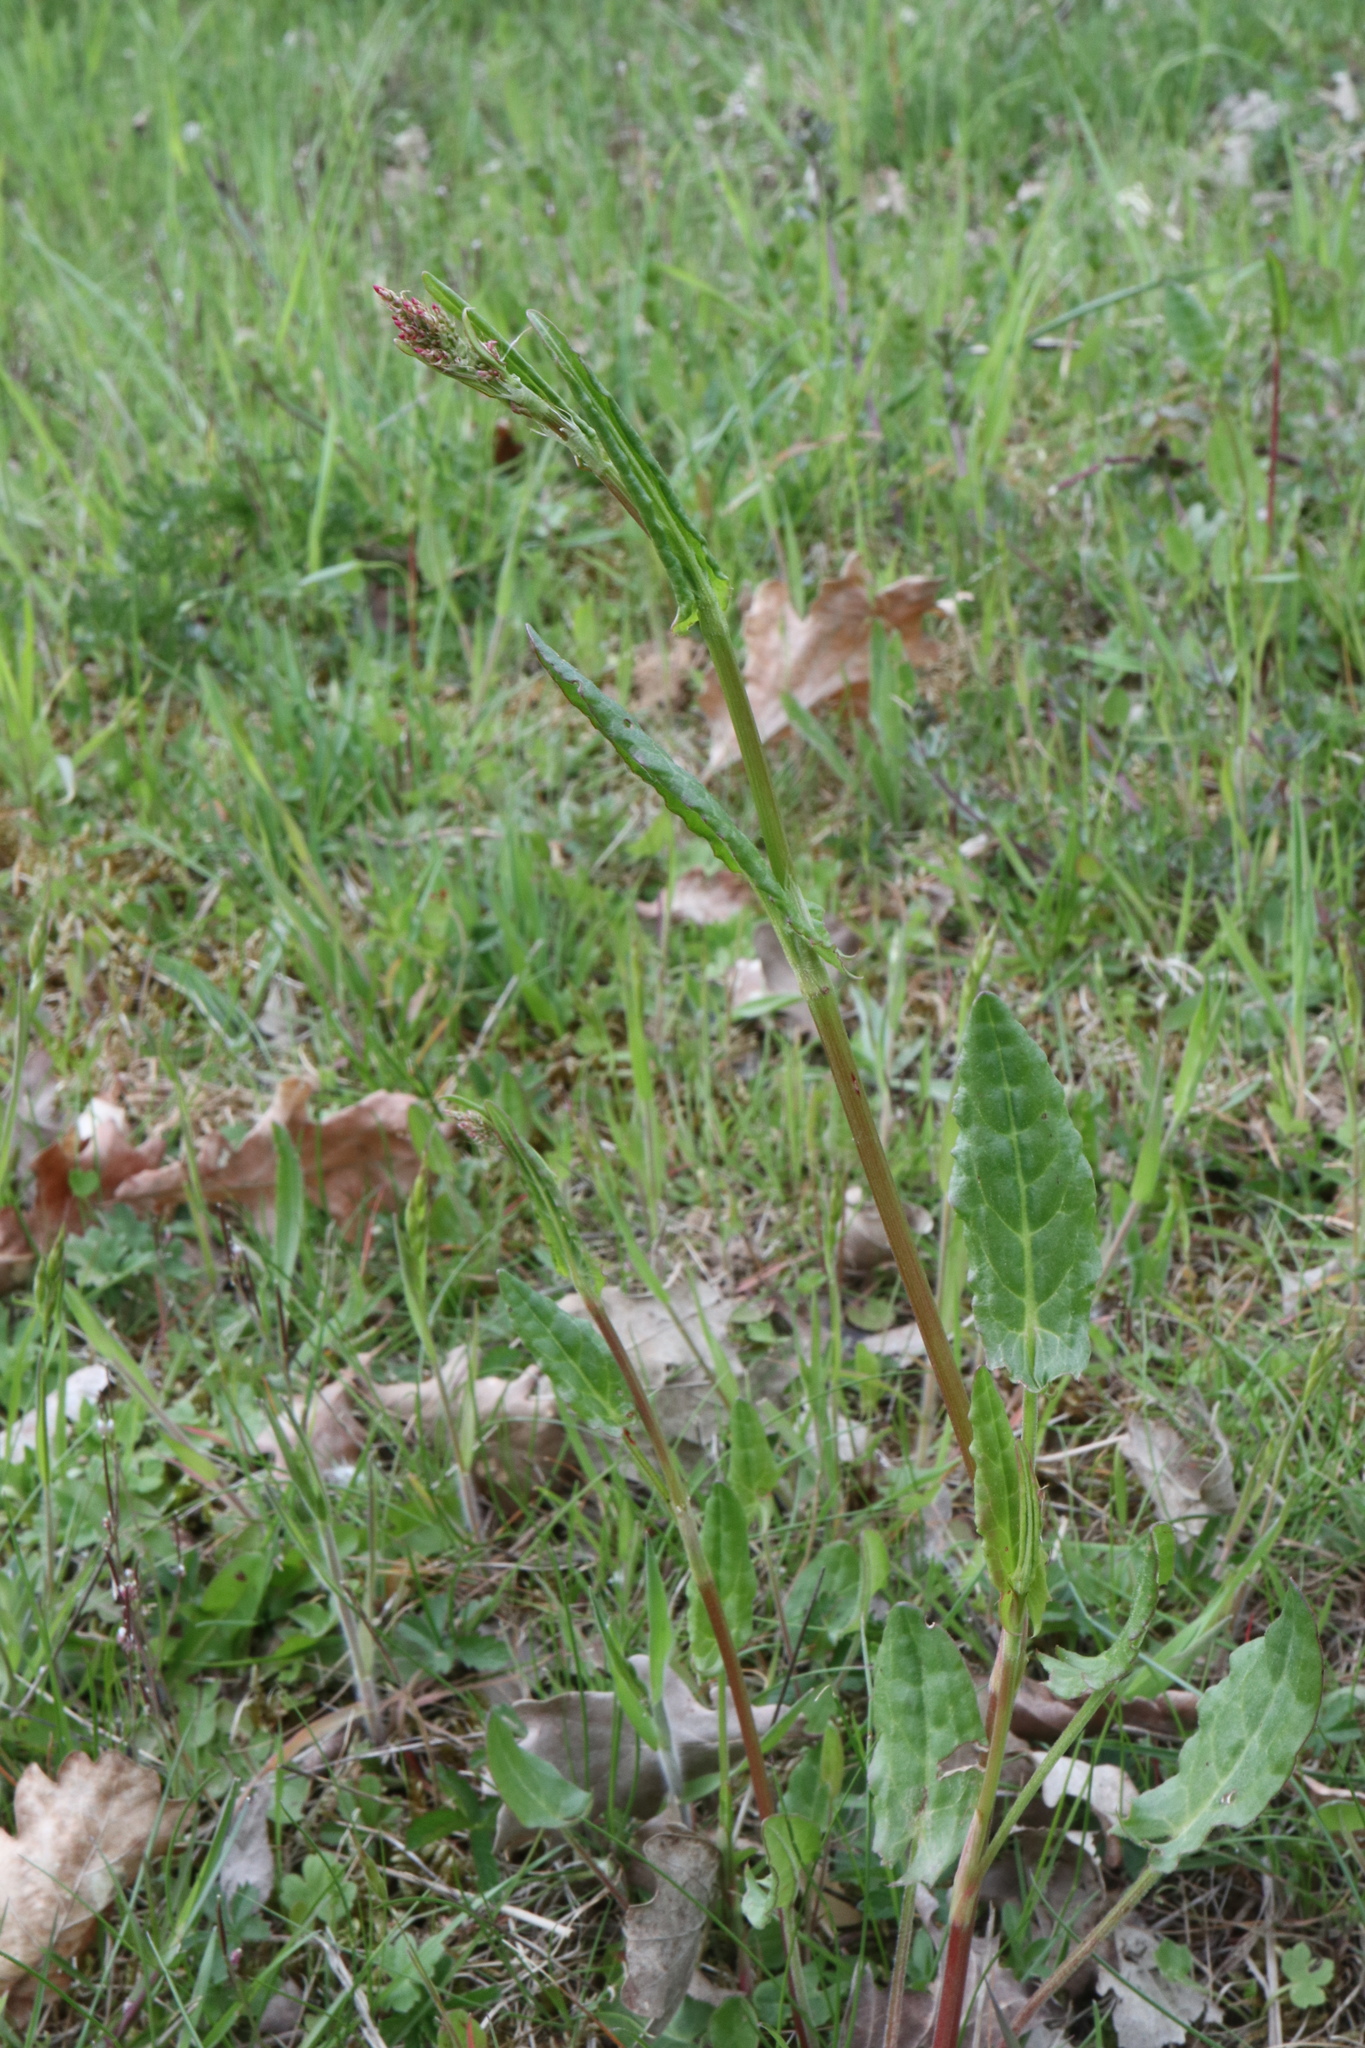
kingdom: Plantae
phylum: Tracheophyta
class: Magnoliopsida
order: Caryophyllales
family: Polygonaceae
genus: Rumex
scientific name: Rumex acetosa
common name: Garden sorrel
